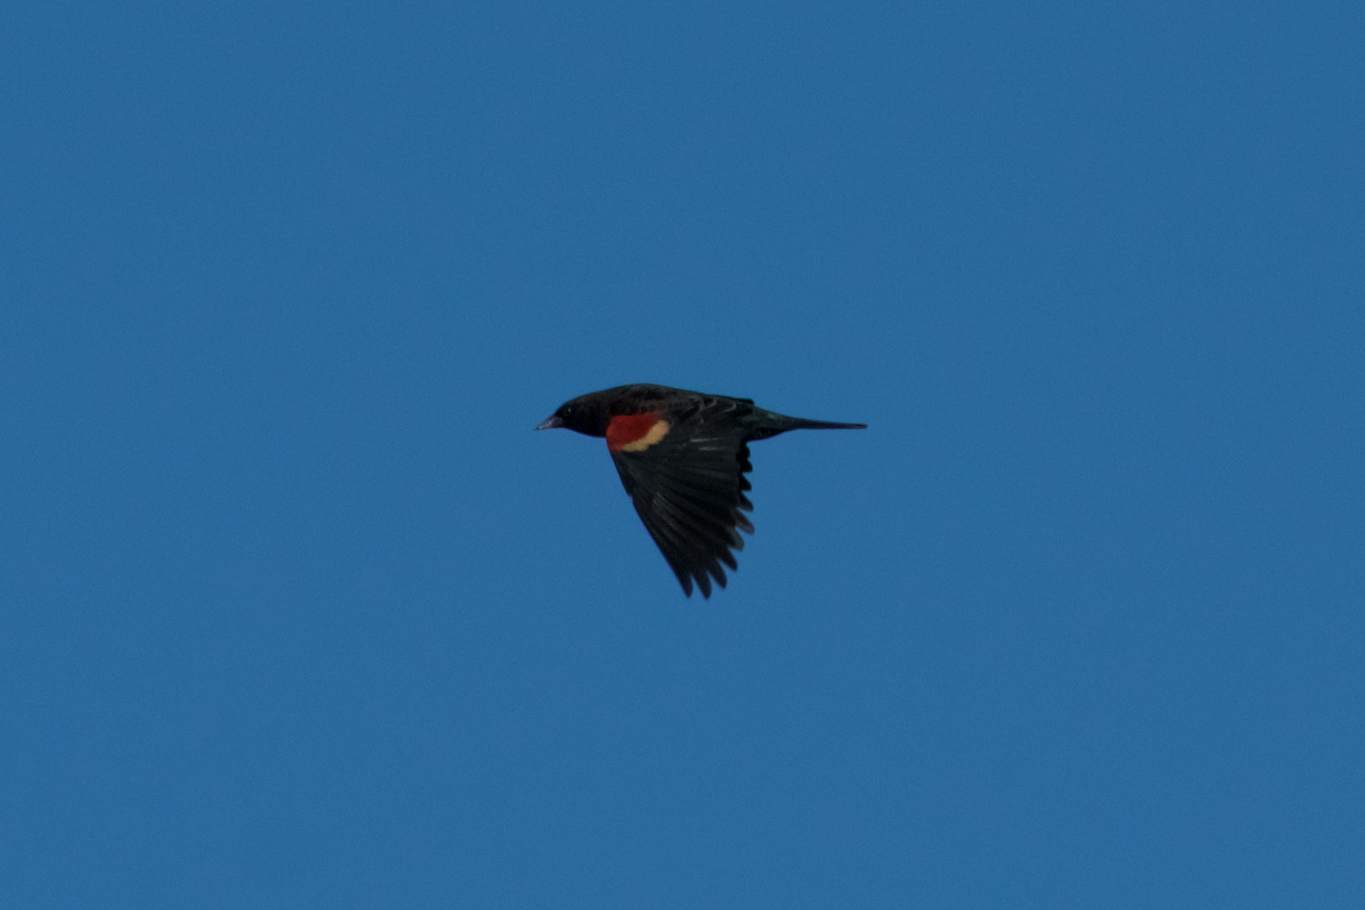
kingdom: Animalia
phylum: Chordata
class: Aves
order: Passeriformes
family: Icteridae
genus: Agelaius
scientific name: Agelaius phoeniceus
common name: Red-winged blackbird
